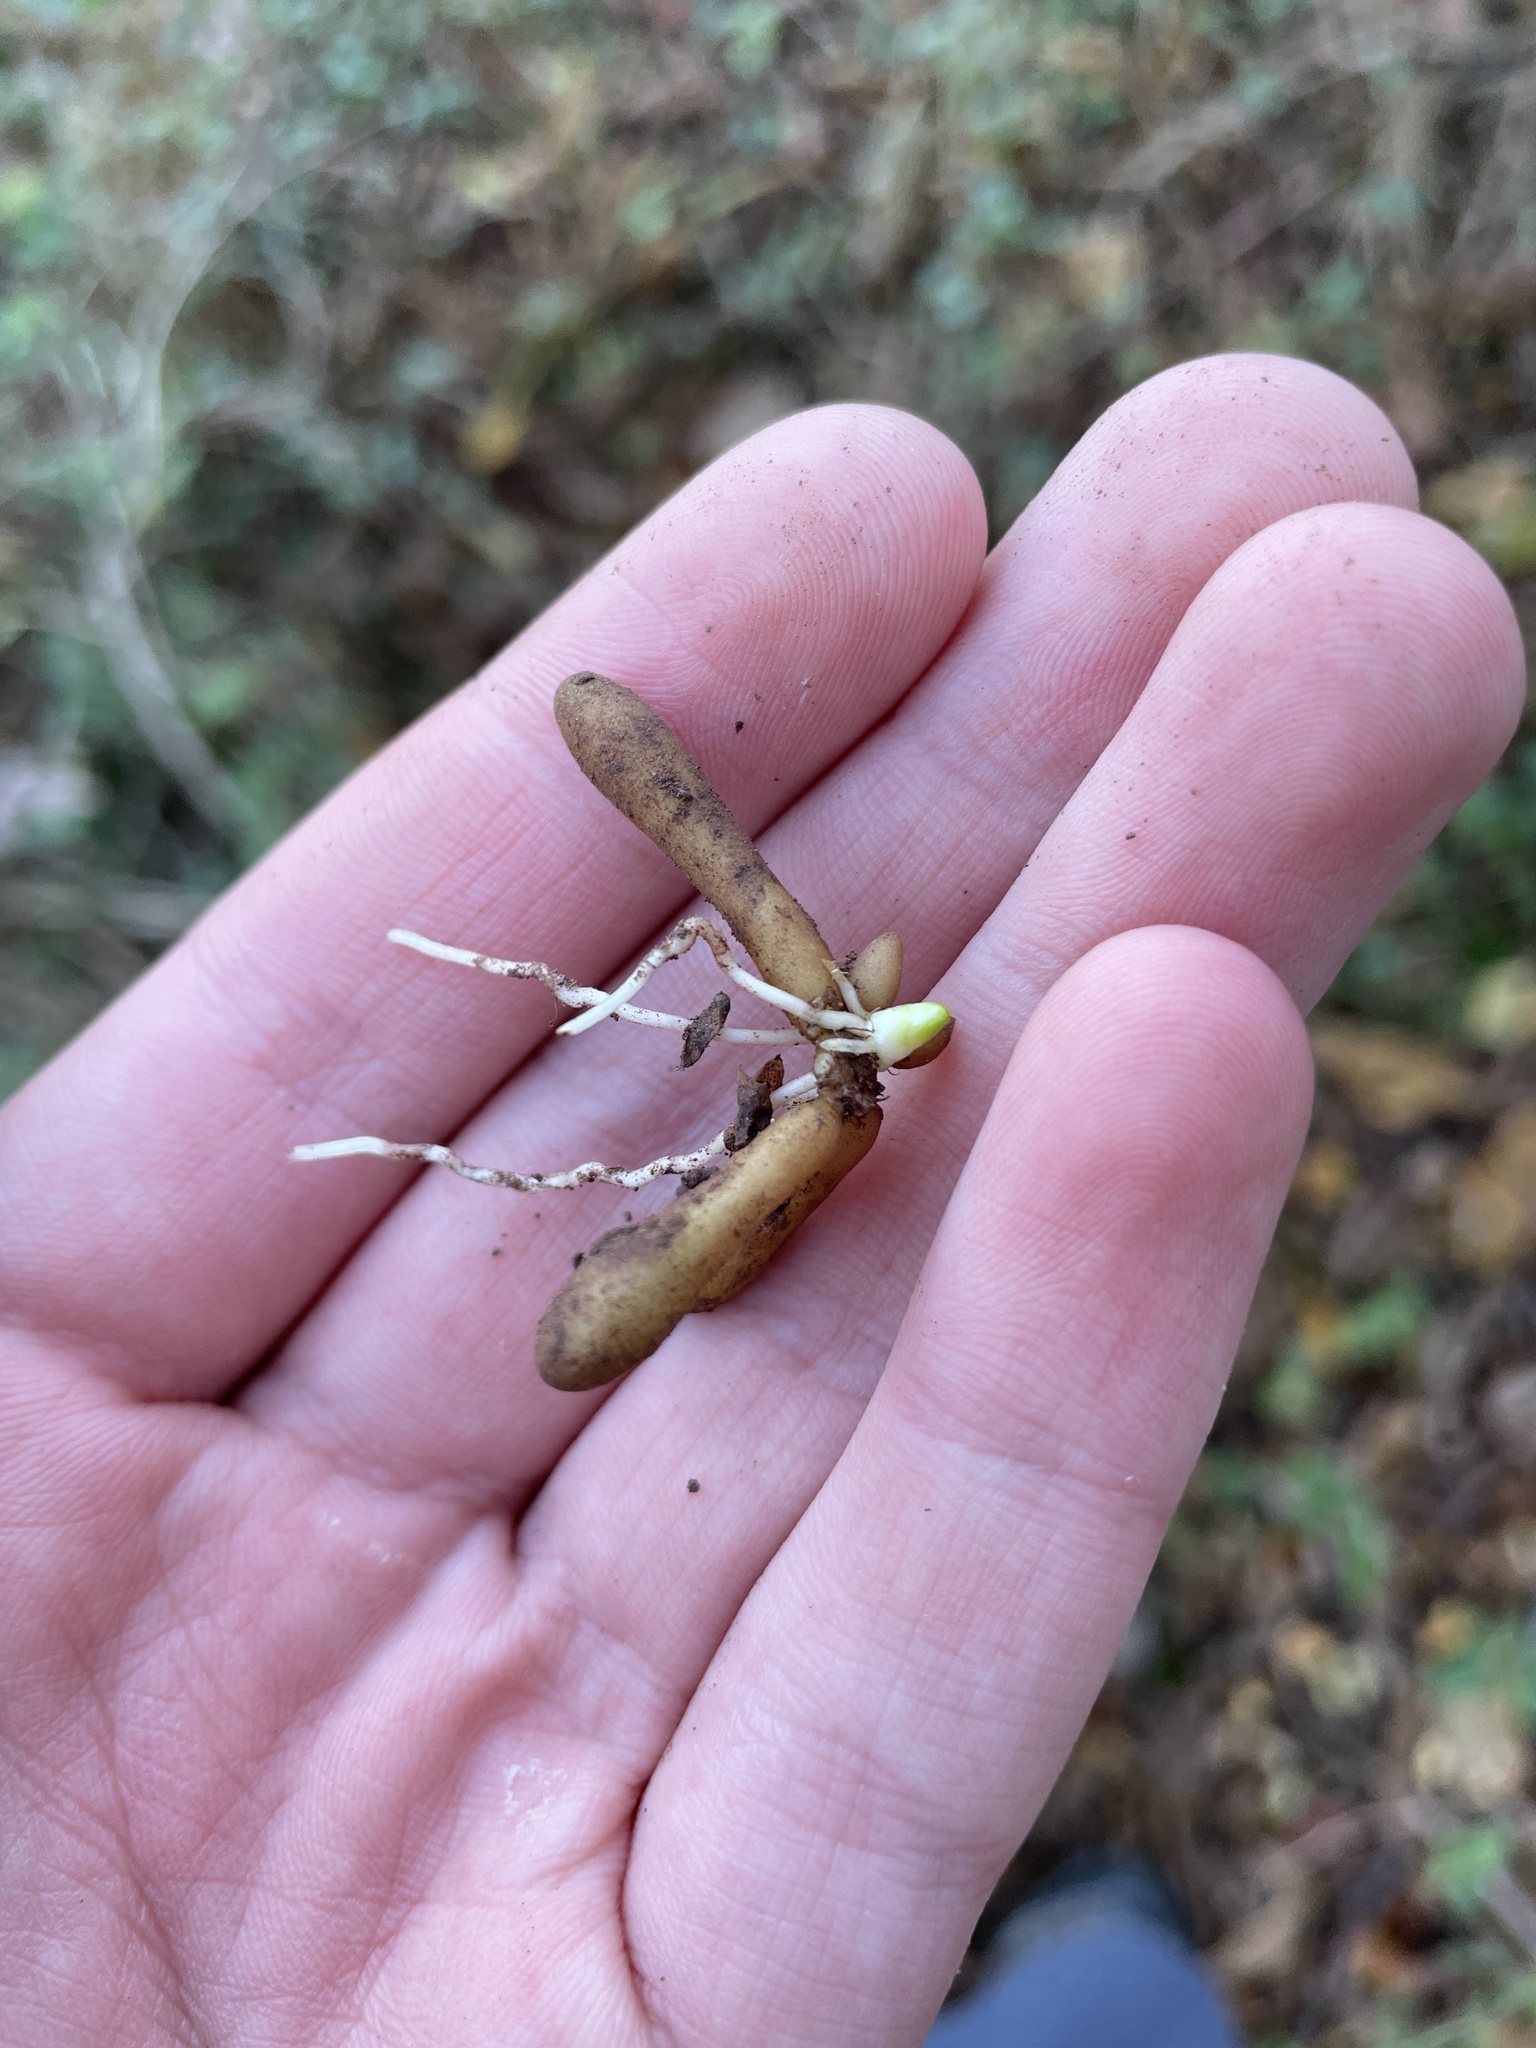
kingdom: Plantae
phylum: Tracheophyta
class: Magnoliopsida
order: Ranunculales
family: Ranunculaceae
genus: Ficaria
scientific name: Ficaria verna
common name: Lesser celandine
